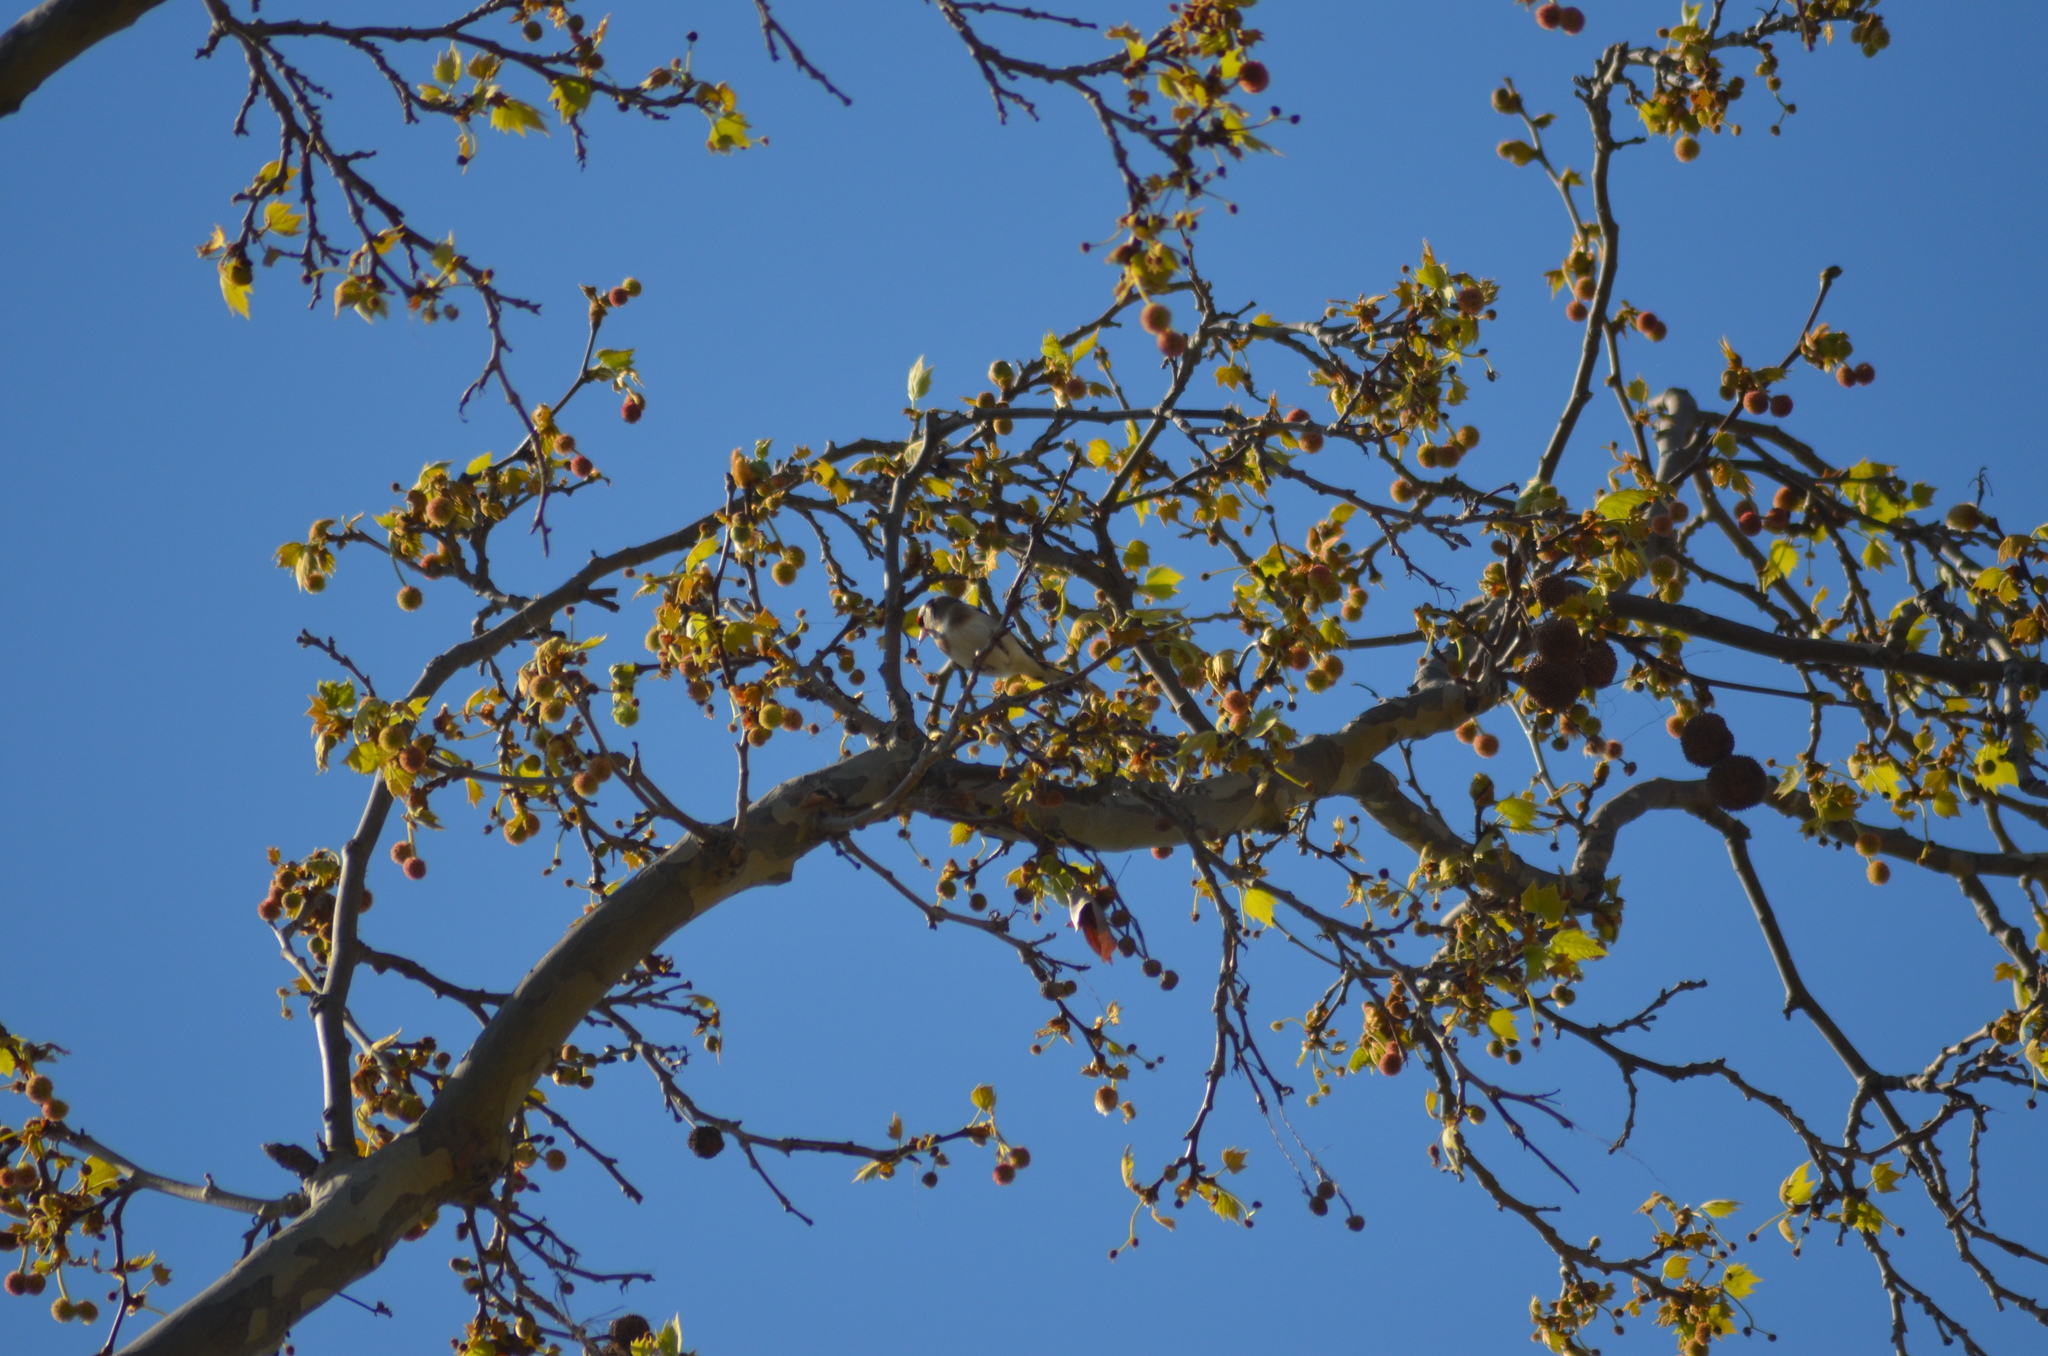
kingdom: Animalia
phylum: Chordata
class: Aves
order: Passeriformes
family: Fringillidae
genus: Carduelis
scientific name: Carduelis carduelis
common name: European goldfinch
